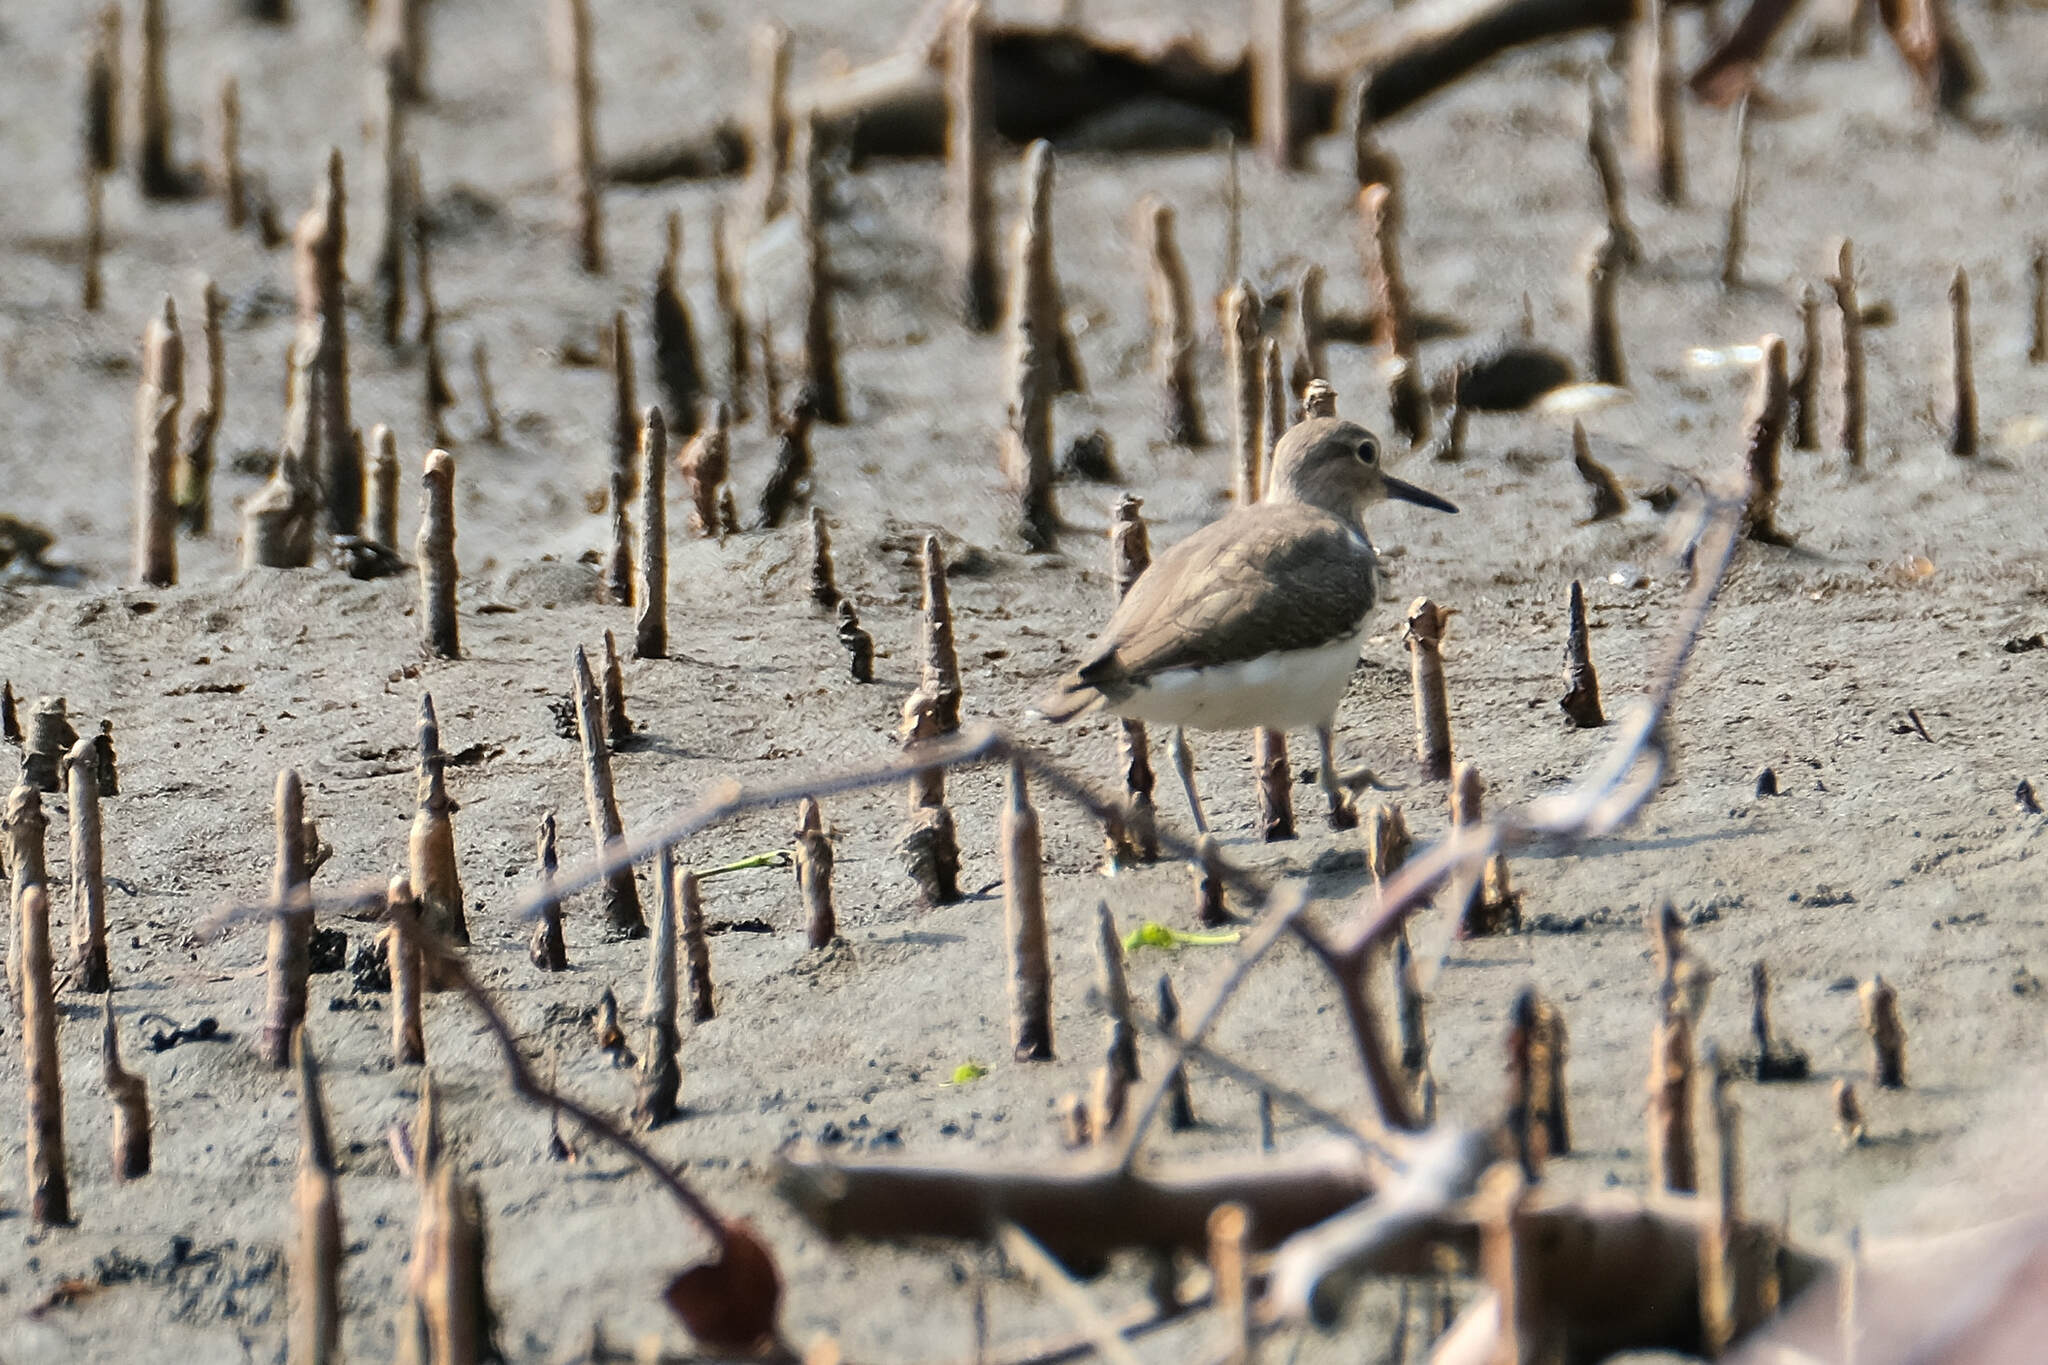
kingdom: Animalia
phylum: Chordata
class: Aves
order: Charadriiformes
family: Scolopacidae
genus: Actitis
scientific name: Actitis hypoleucos
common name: Common sandpiper
